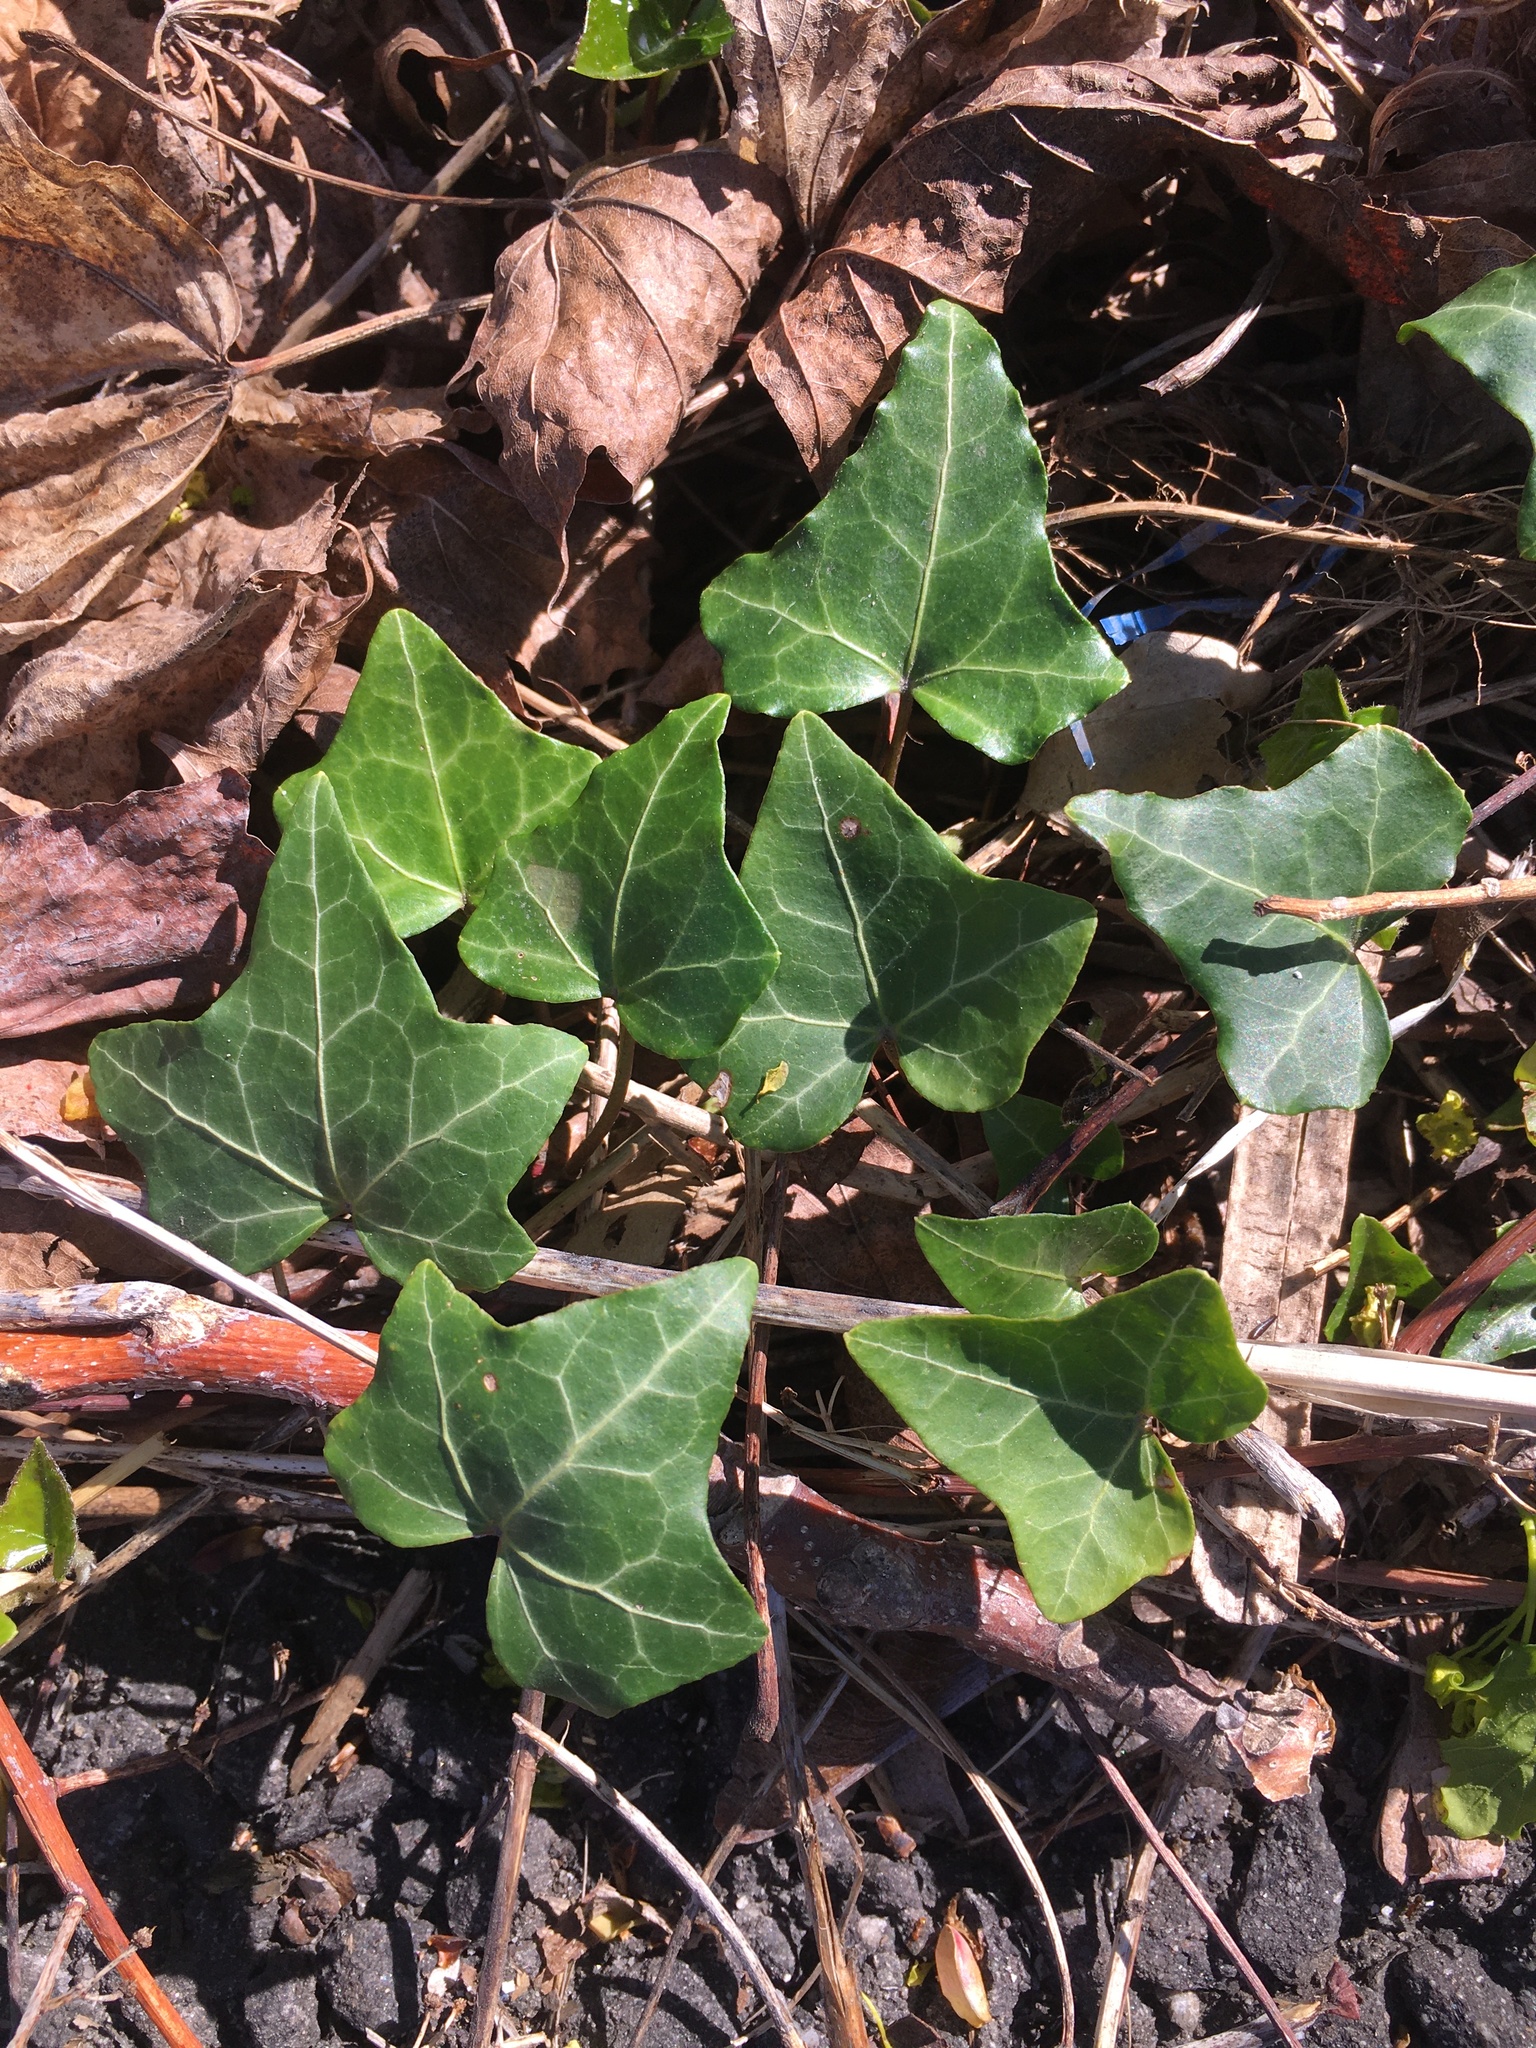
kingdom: Plantae
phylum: Tracheophyta
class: Magnoliopsida
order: Apiales
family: Araliaceae
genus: Hedera
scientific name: Hedera helix
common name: Ivy
